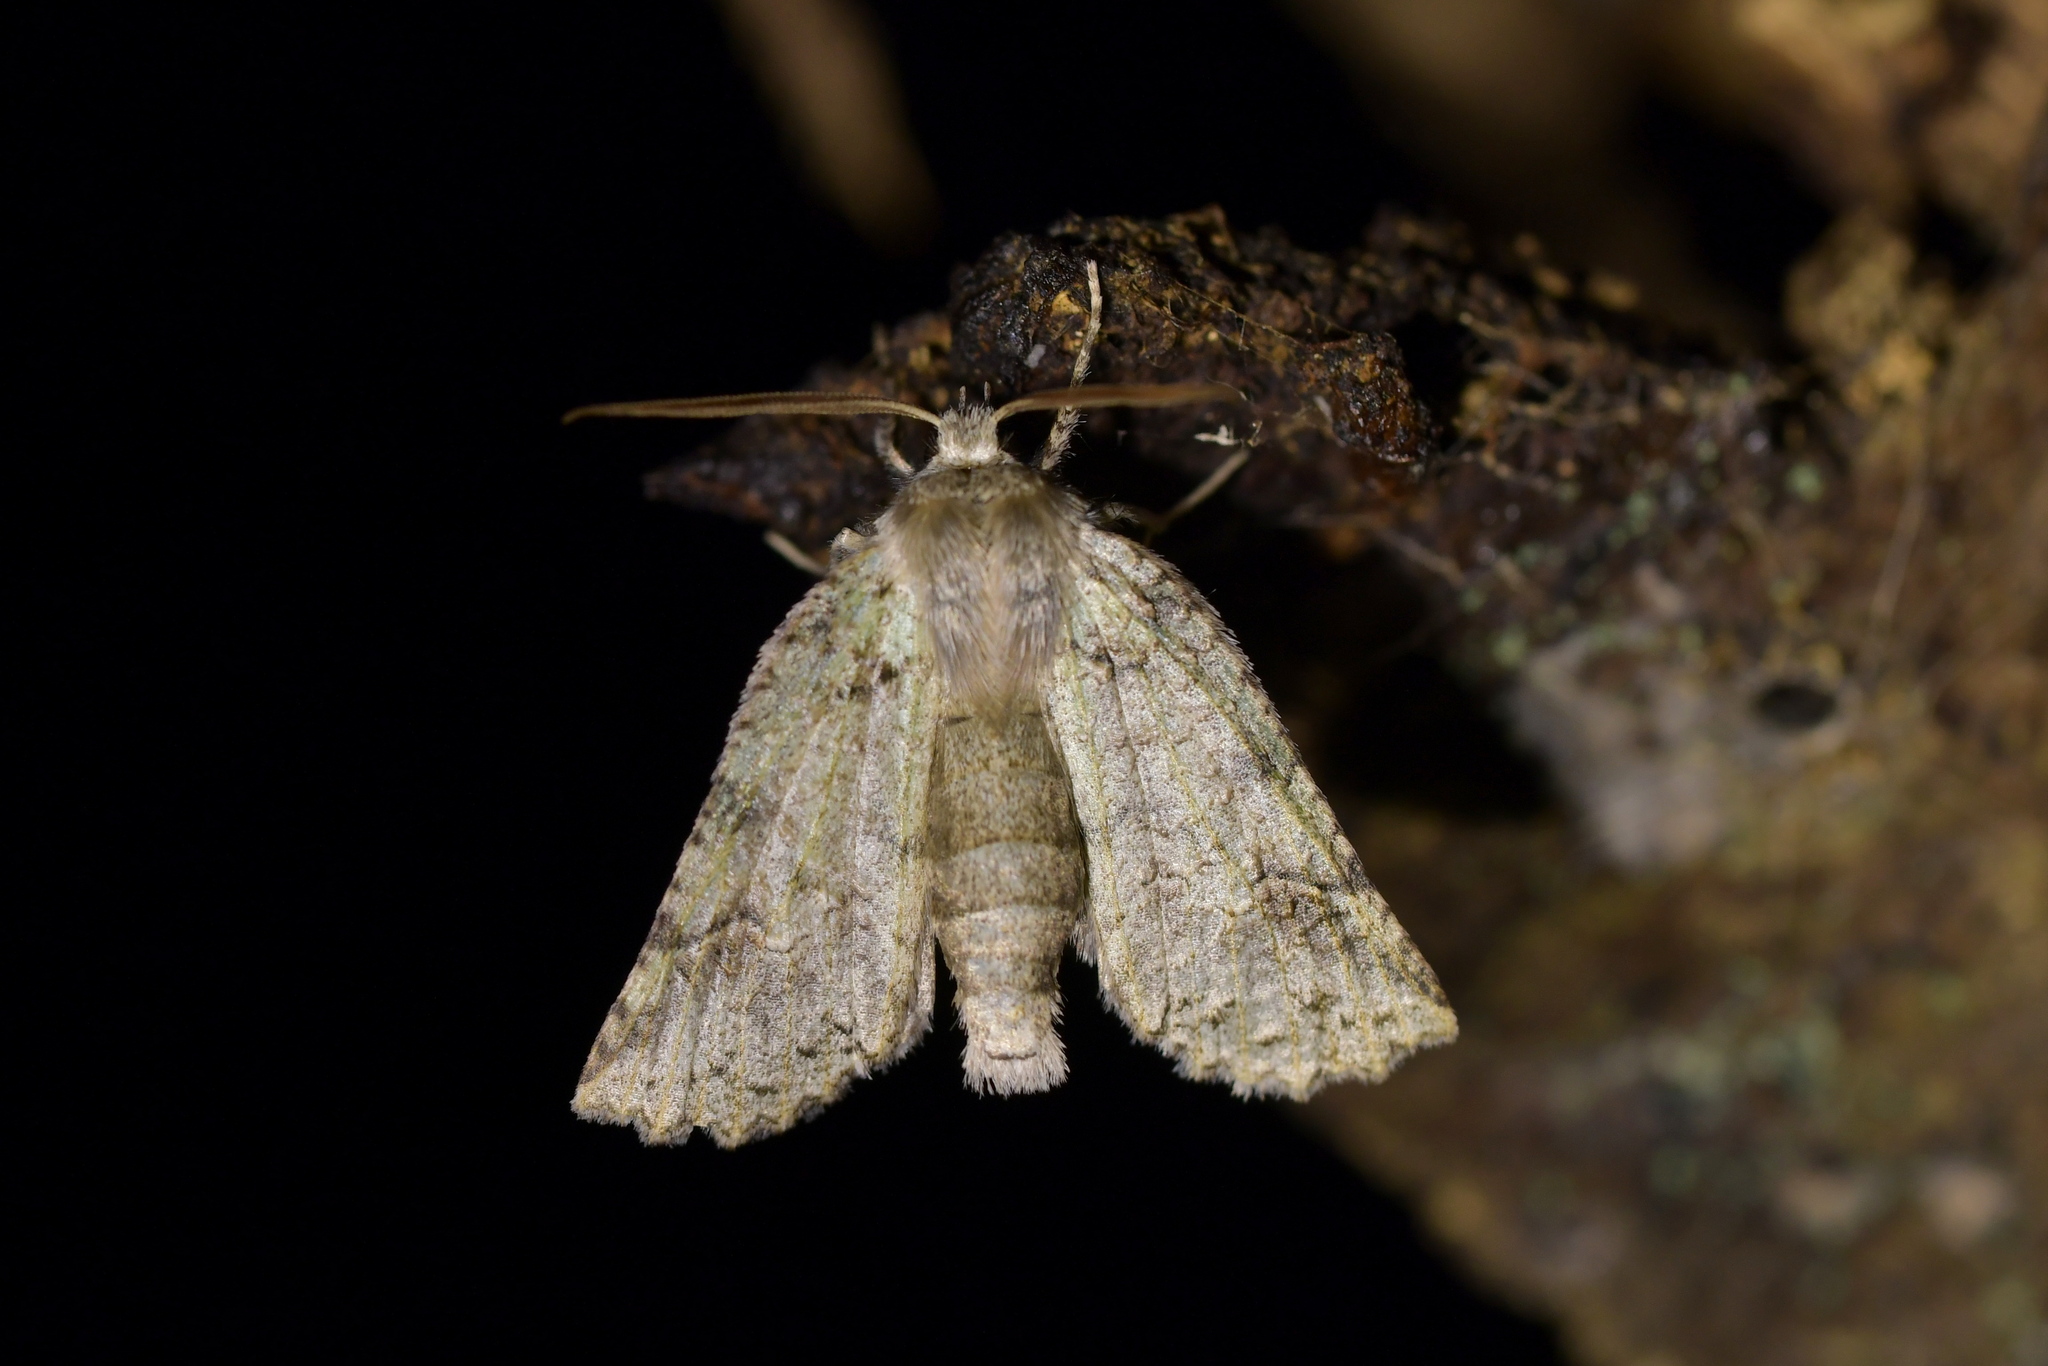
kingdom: Animalia
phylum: Arthropoda
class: Insecta
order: Lepidoptera
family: Geometridae
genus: Declana
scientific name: Declana floccosa
